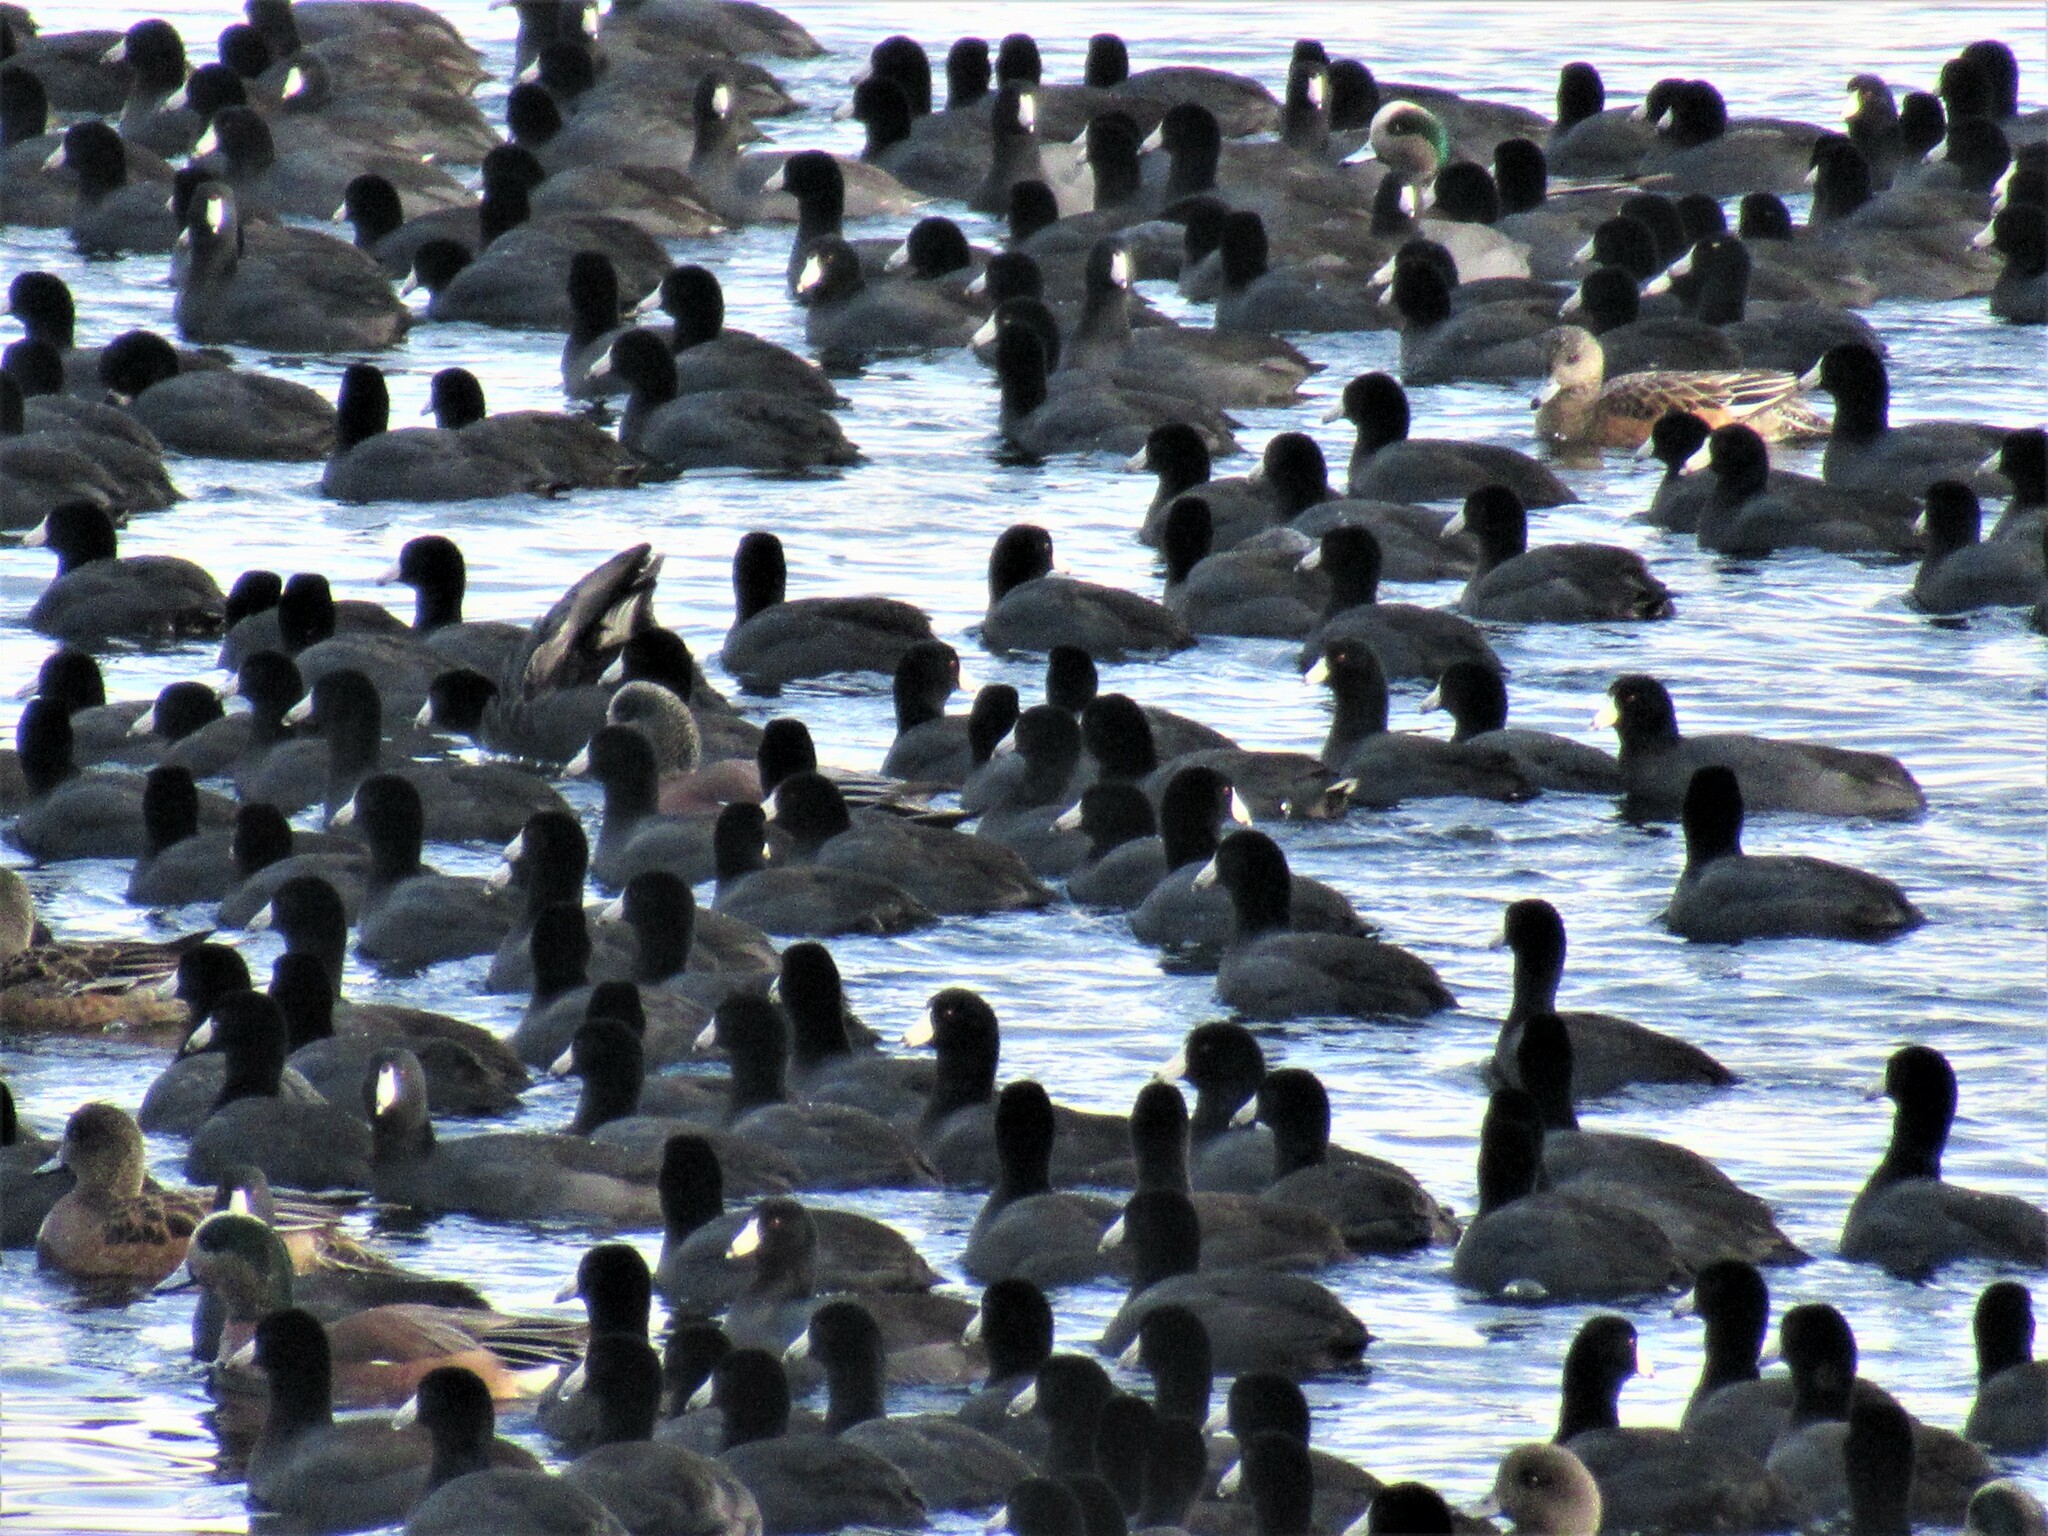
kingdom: Animalia
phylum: Chordata
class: Aves
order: Gruiformes
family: Rallidae
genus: Fulica
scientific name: Fulica americana
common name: American coot
